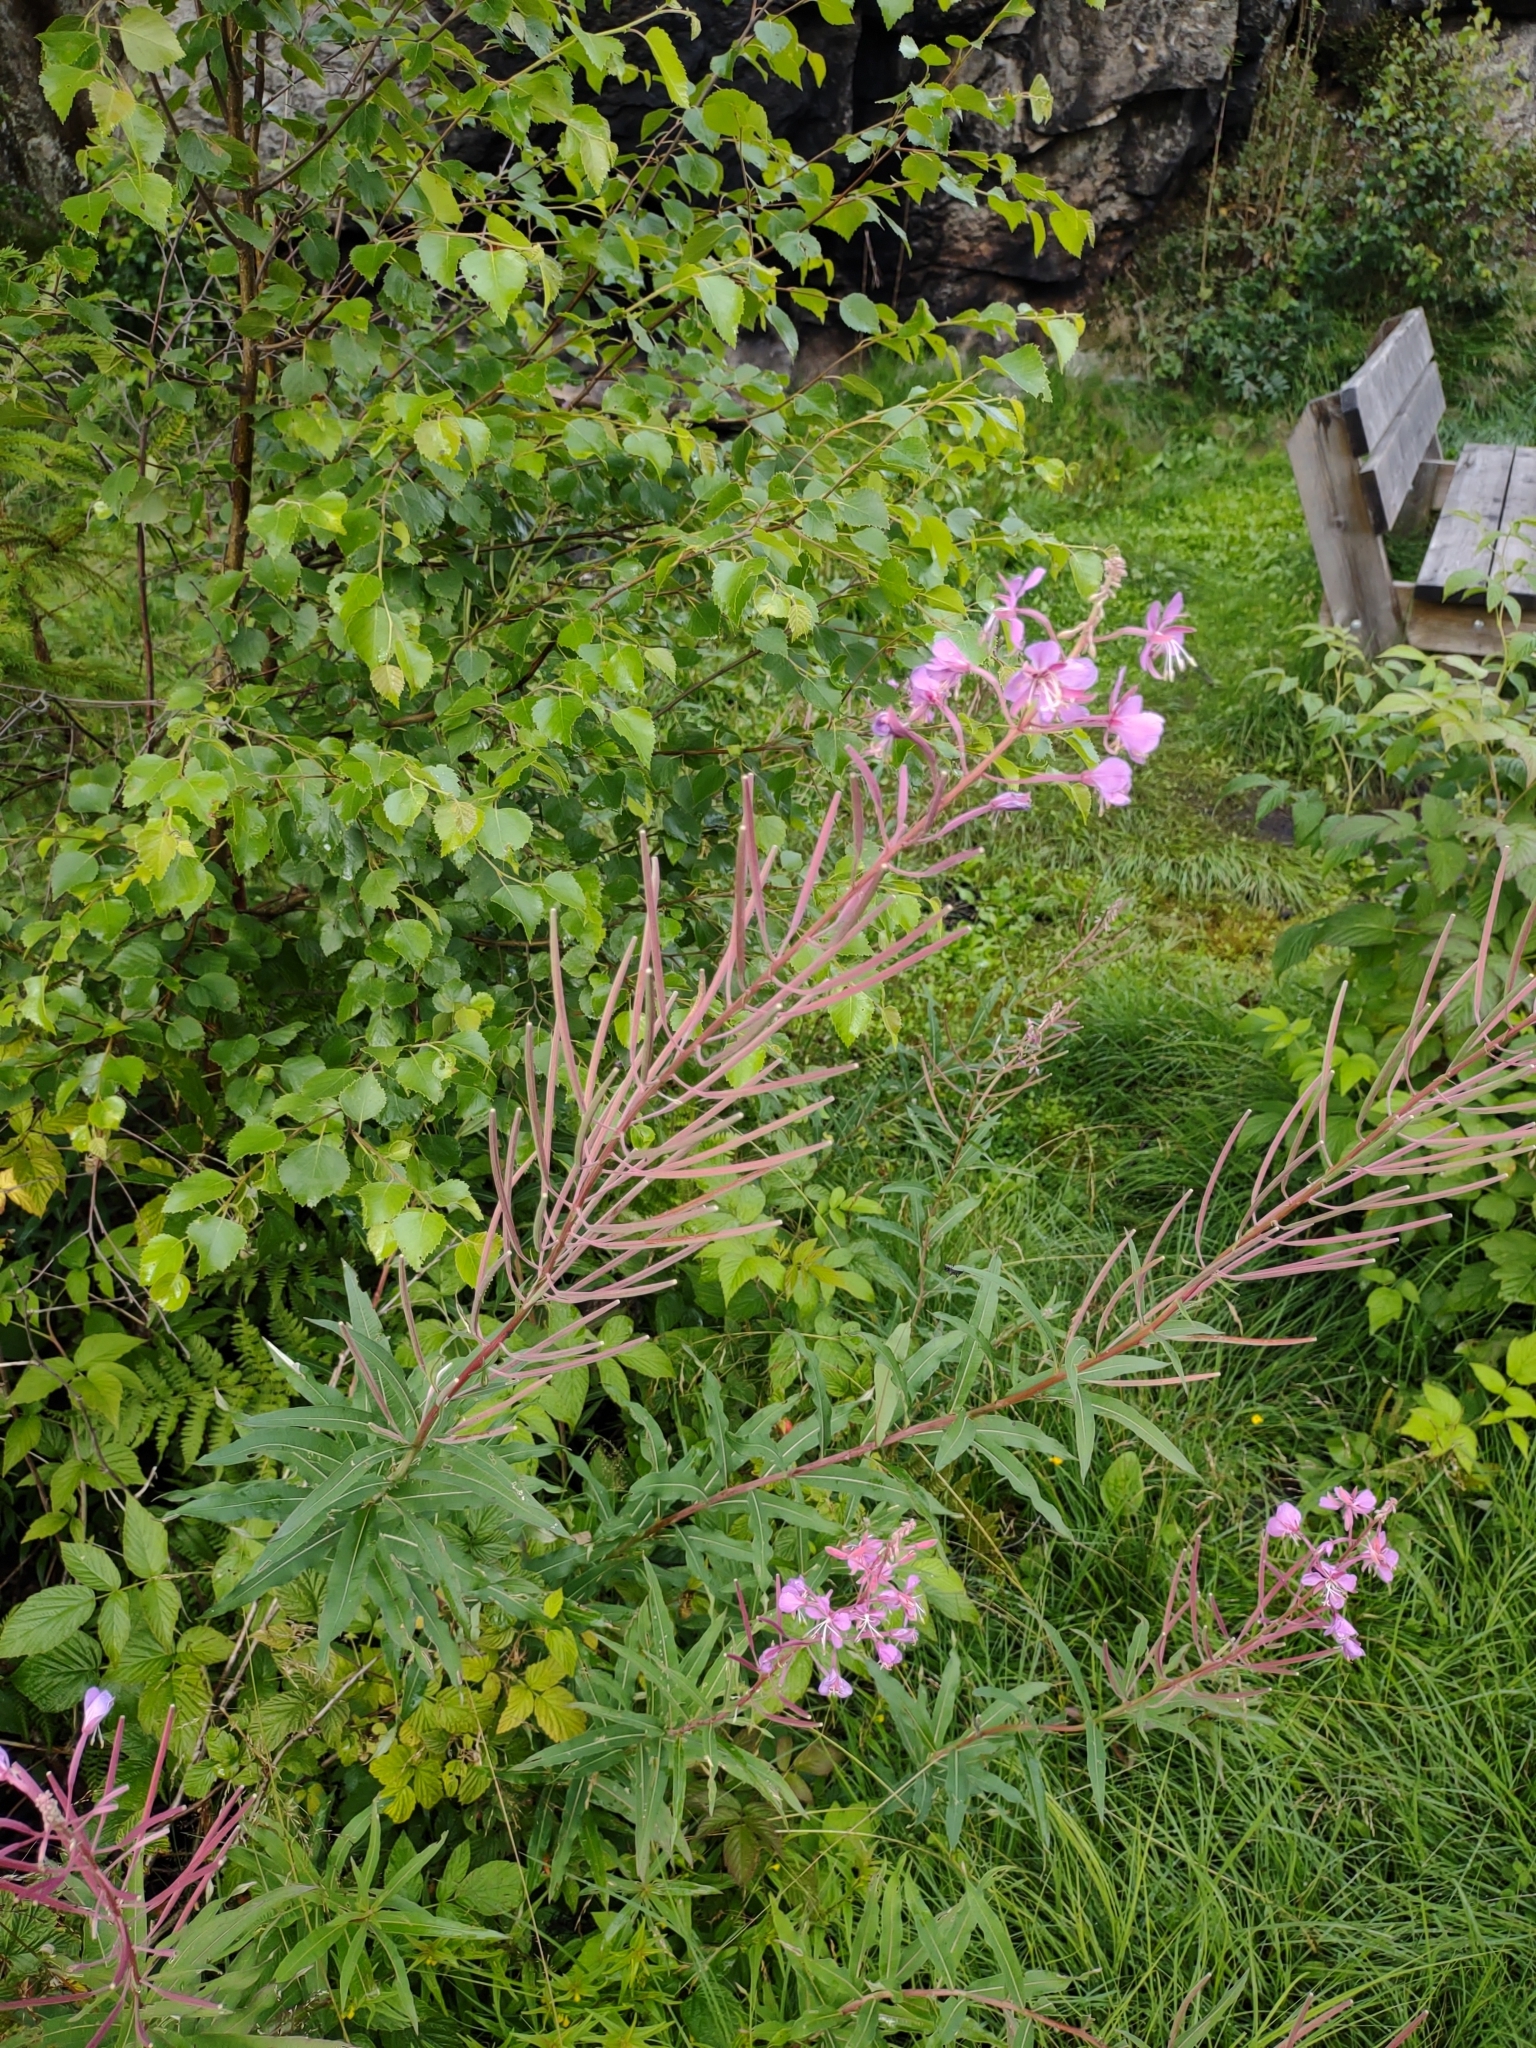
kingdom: Plantae
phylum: Tracheophyta
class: Magnoliopsida
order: Myrtales
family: Onagraceae
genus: Chamaenerion
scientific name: Chamaenerion angustifolium
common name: Fireweed
